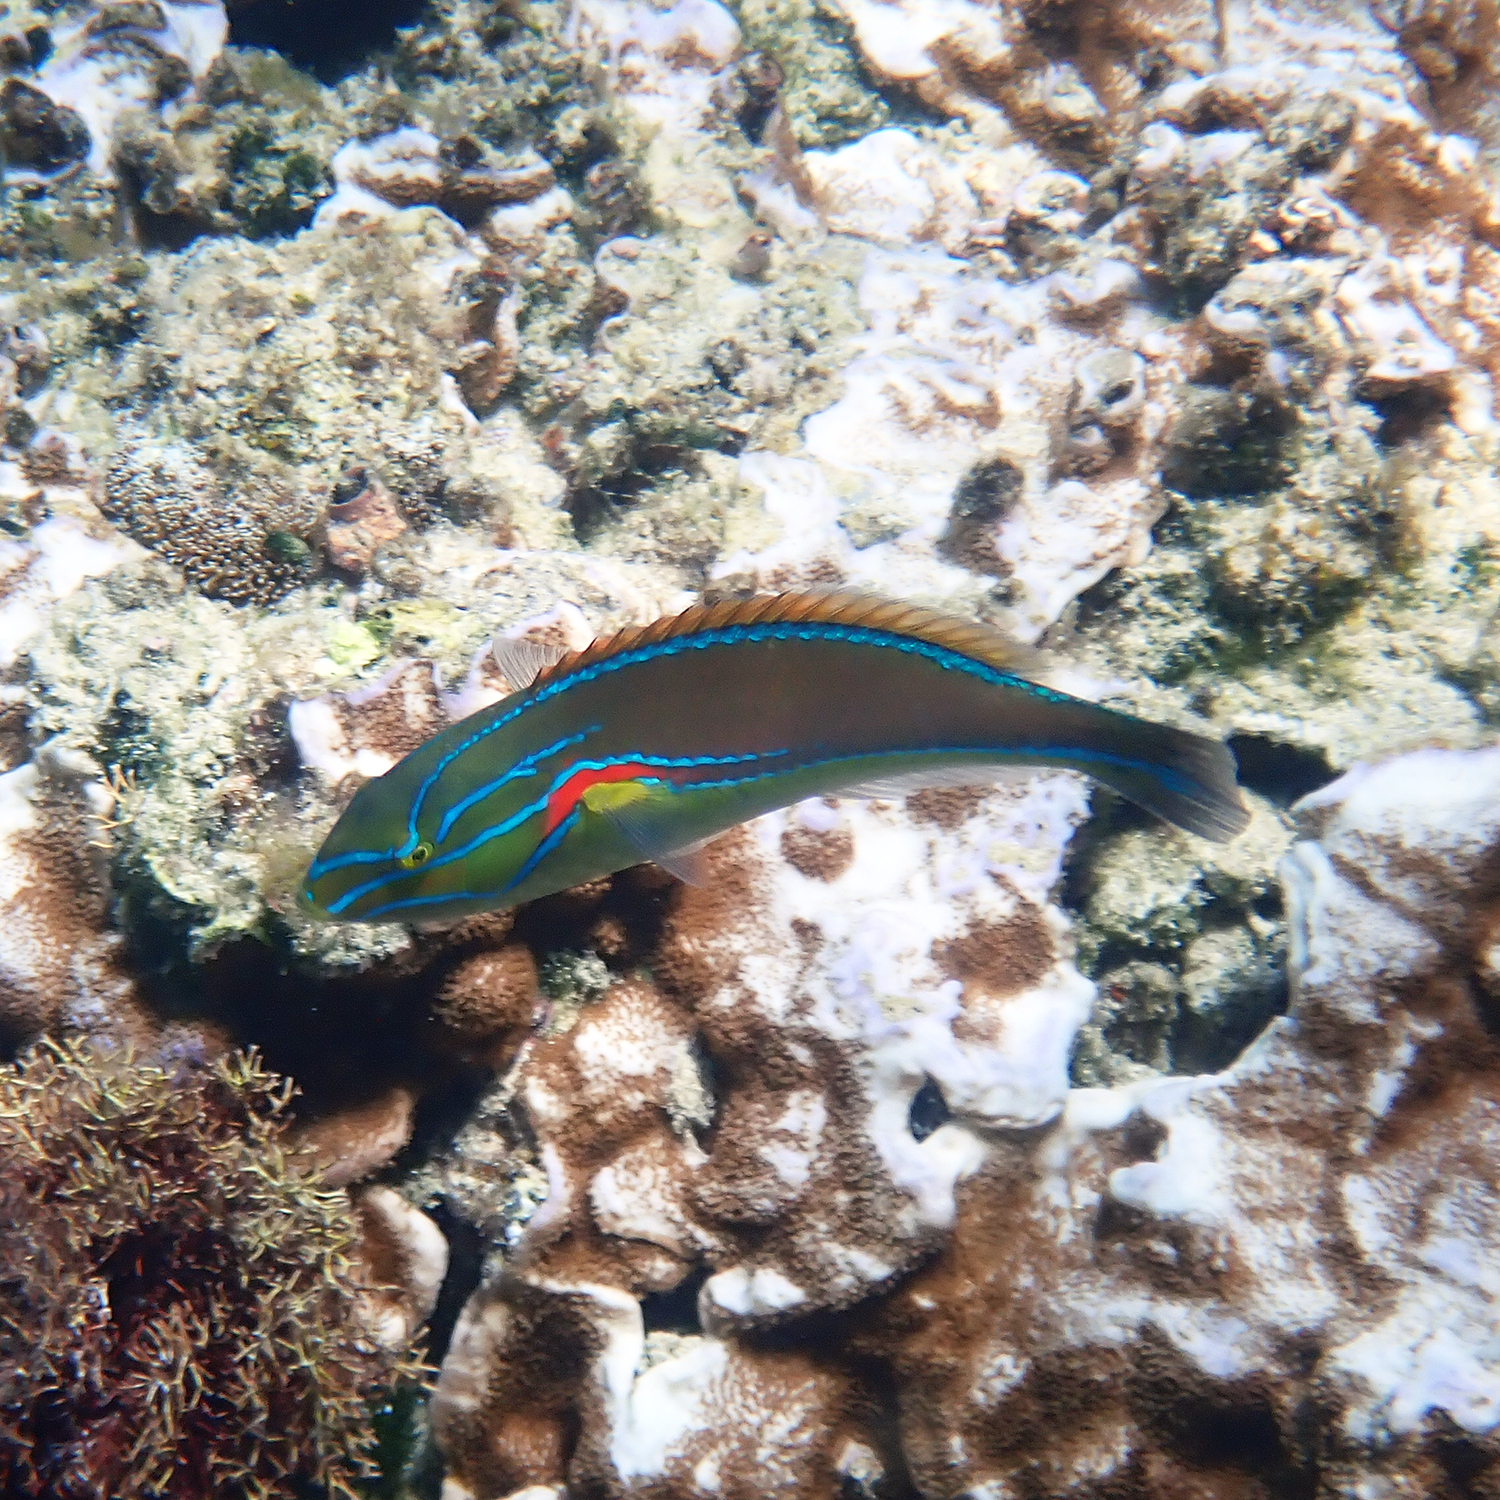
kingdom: Animalia
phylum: Chordata
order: Perciformes
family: Labridae
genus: Stethojulis
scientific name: Stethojulis bandanensis
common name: Red shoulder wrasse
